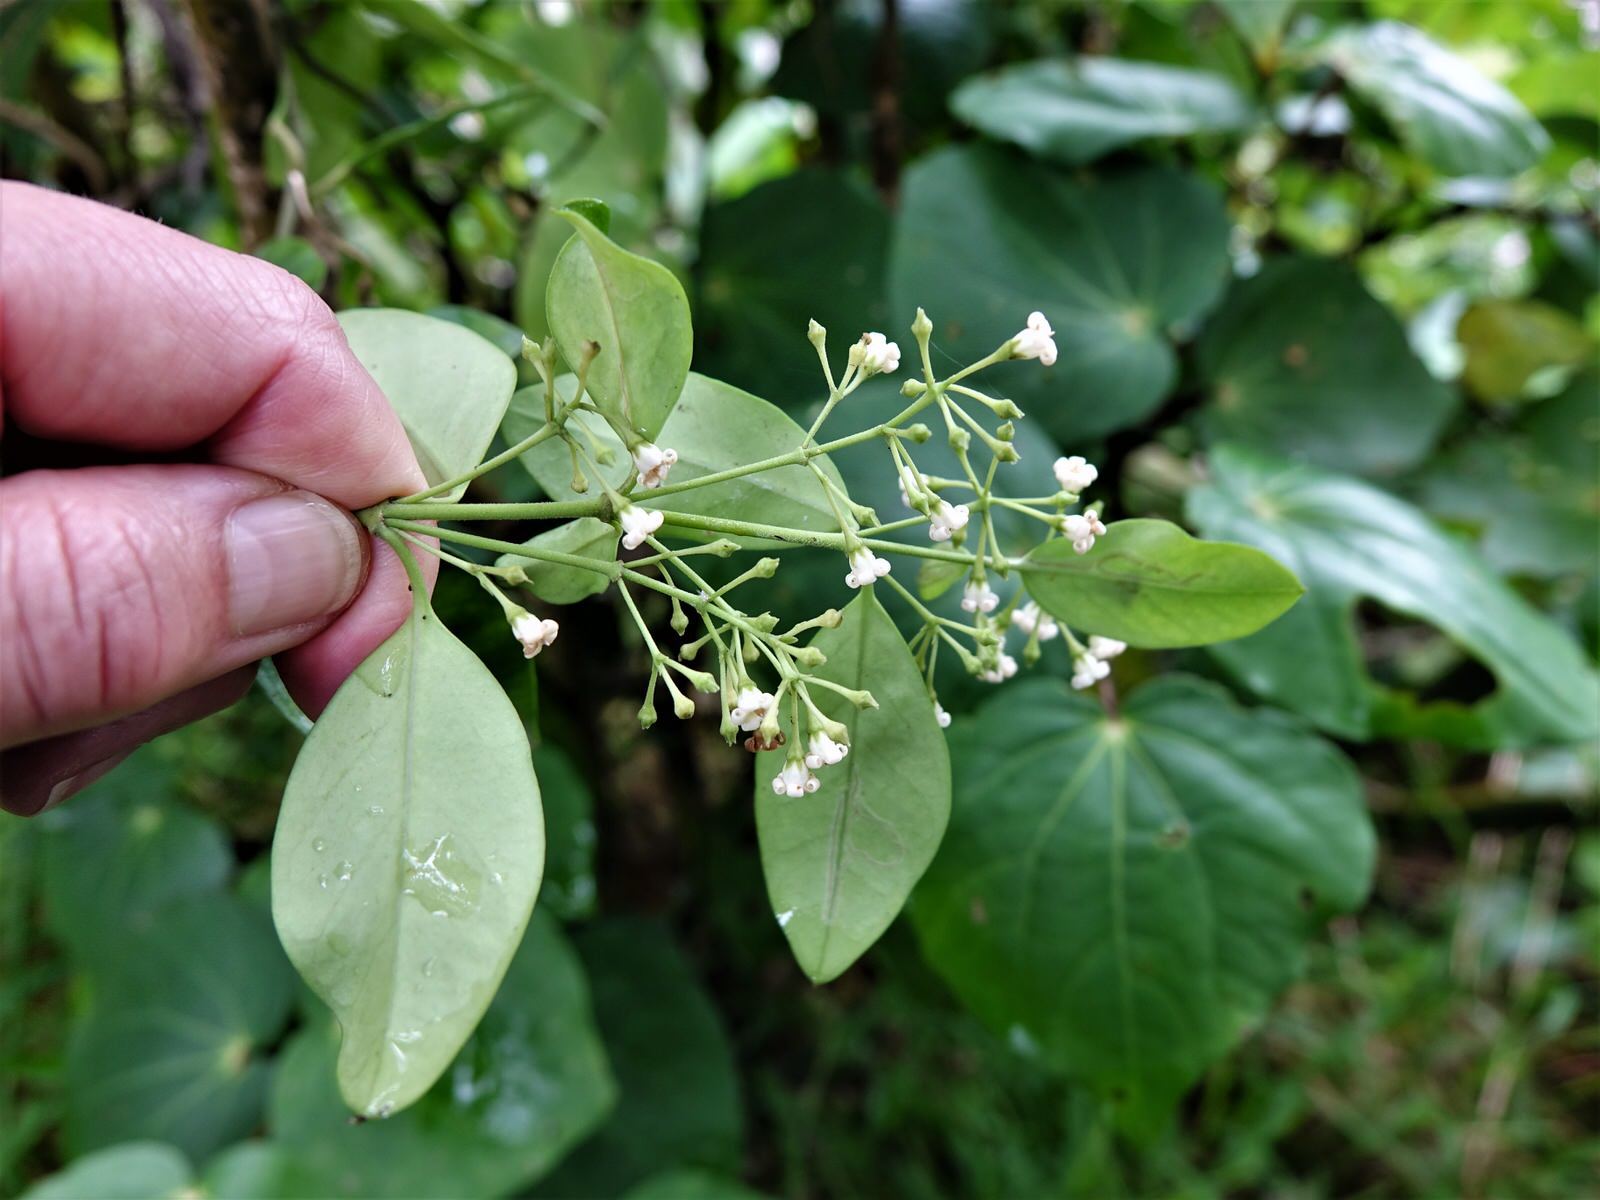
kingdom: Plantae
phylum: Tracheophyta
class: Magnoliopsida
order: Gentianales
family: Apocynaceae
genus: Parsonsia
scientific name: Parsonsia heterophylla
